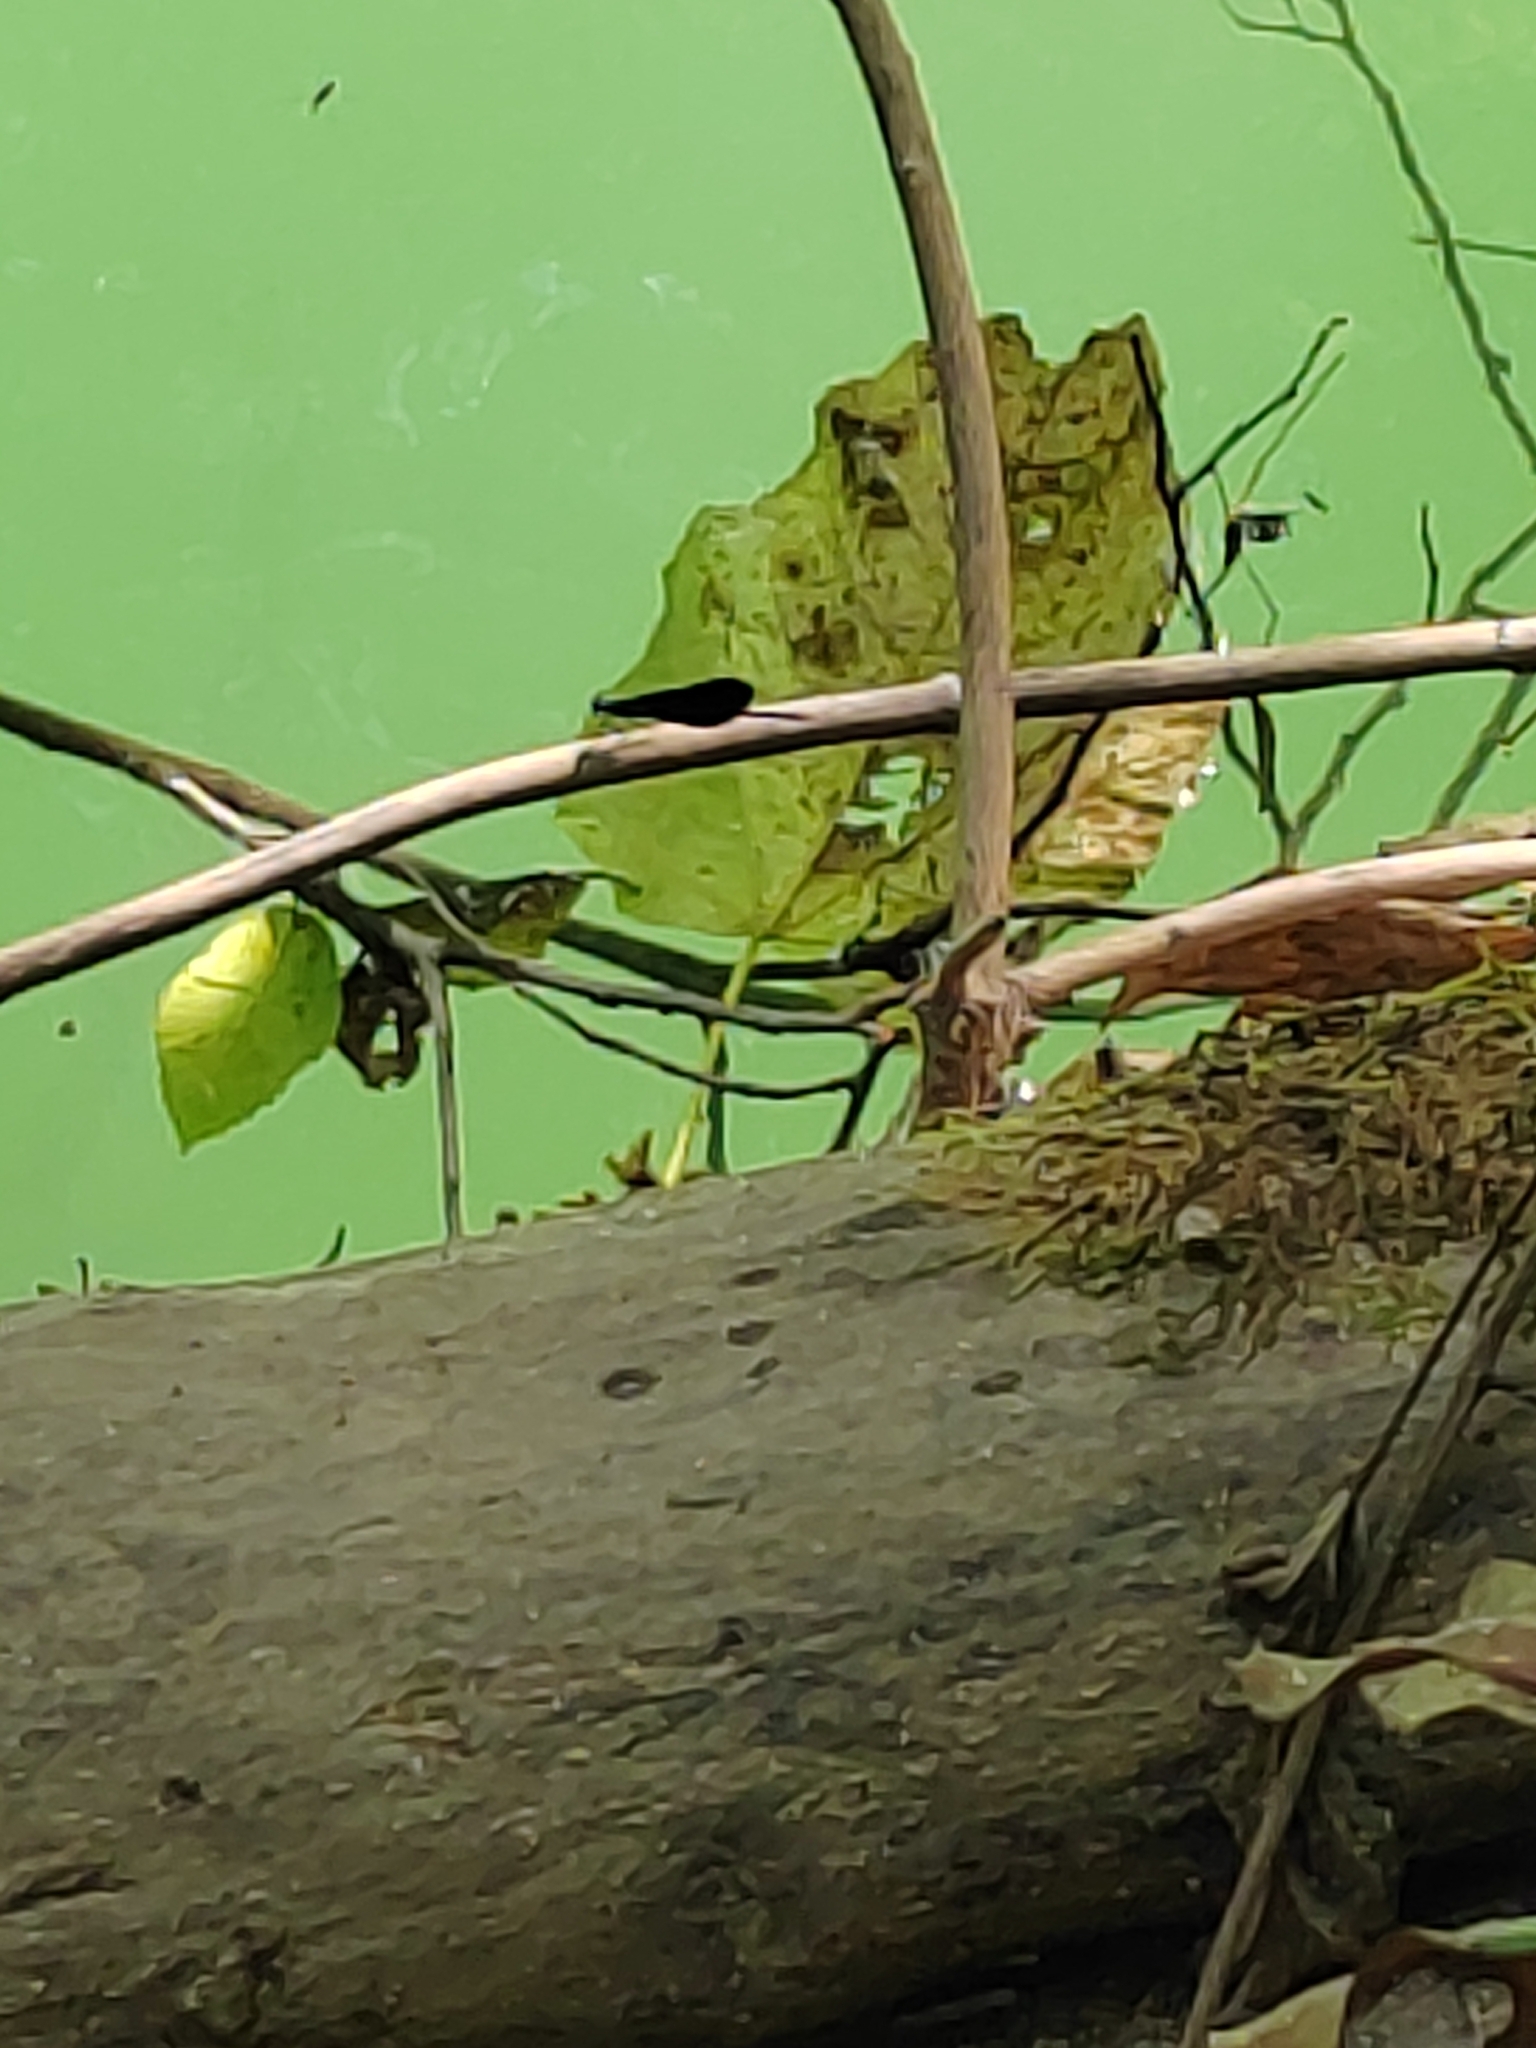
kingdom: Animalia
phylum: Arthropoda
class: Insecta
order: Odonata
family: Calopterygidae
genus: Calopteryx
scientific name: Calopteryx virgo
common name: Beautiful demoiselle
